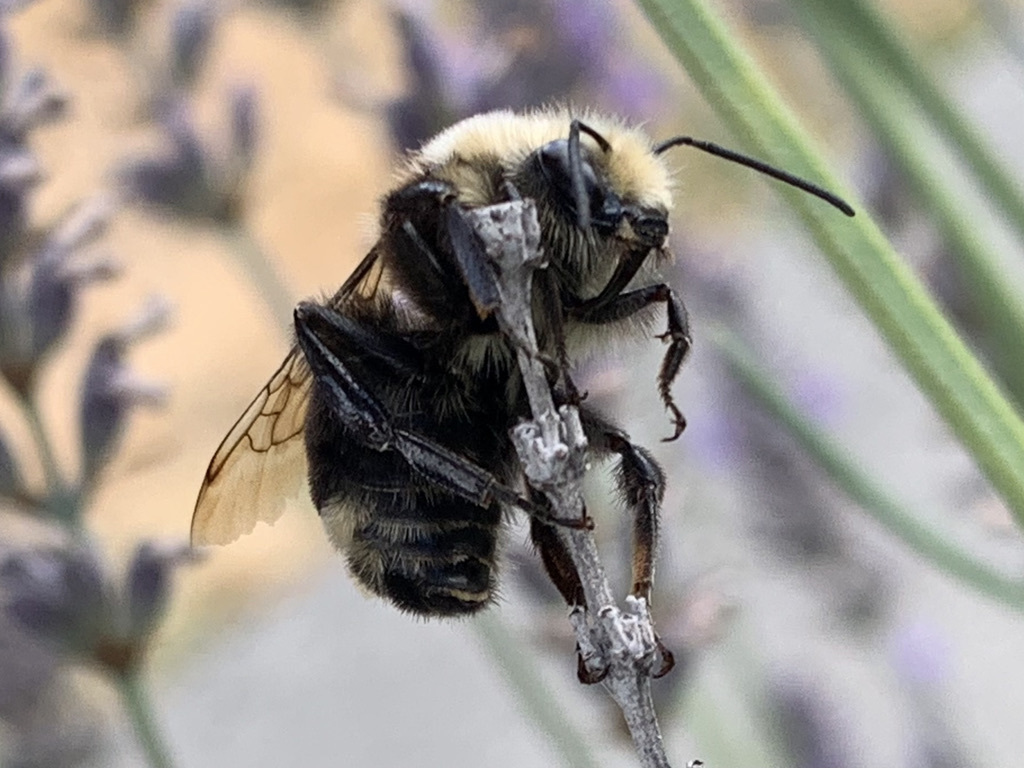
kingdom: Animalia
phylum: Arthropoda
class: Insecta
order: Hymenoptera
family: Apidae
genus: Bombus
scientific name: Bombus vosnesenskii
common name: Vosnesensky bumble bee
